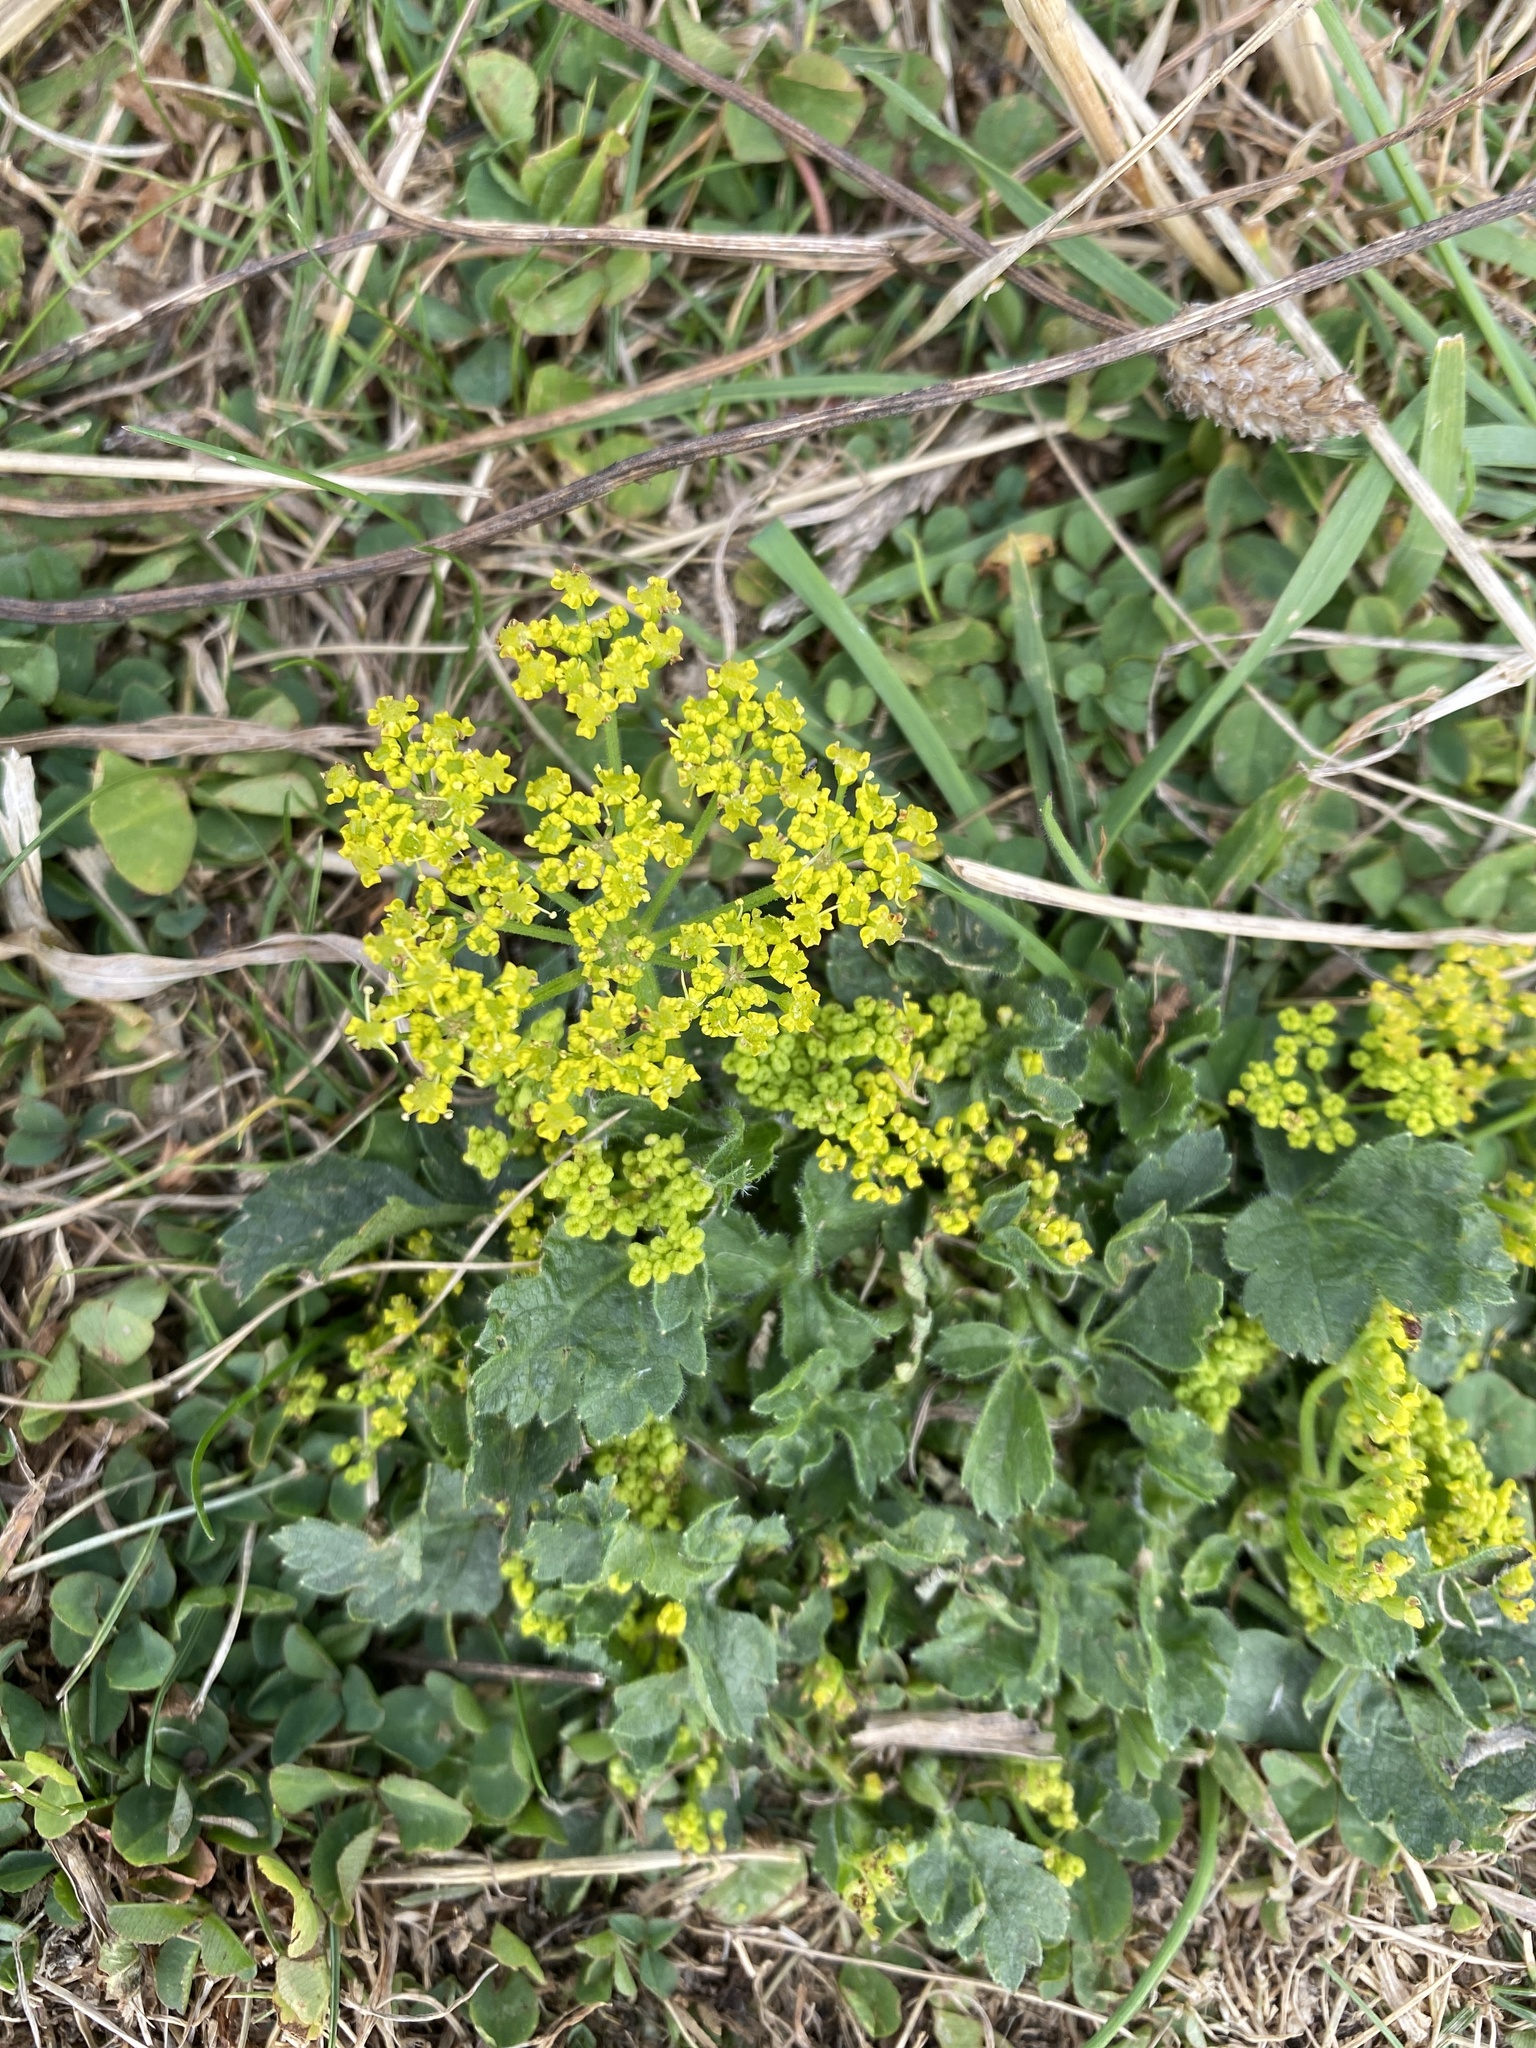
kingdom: Plantae
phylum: Tracheophyta
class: Magnoliopsida
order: Apiales
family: Apiaceae
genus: Pastinaca
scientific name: Pastinaca sativa
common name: Wild parsnip
